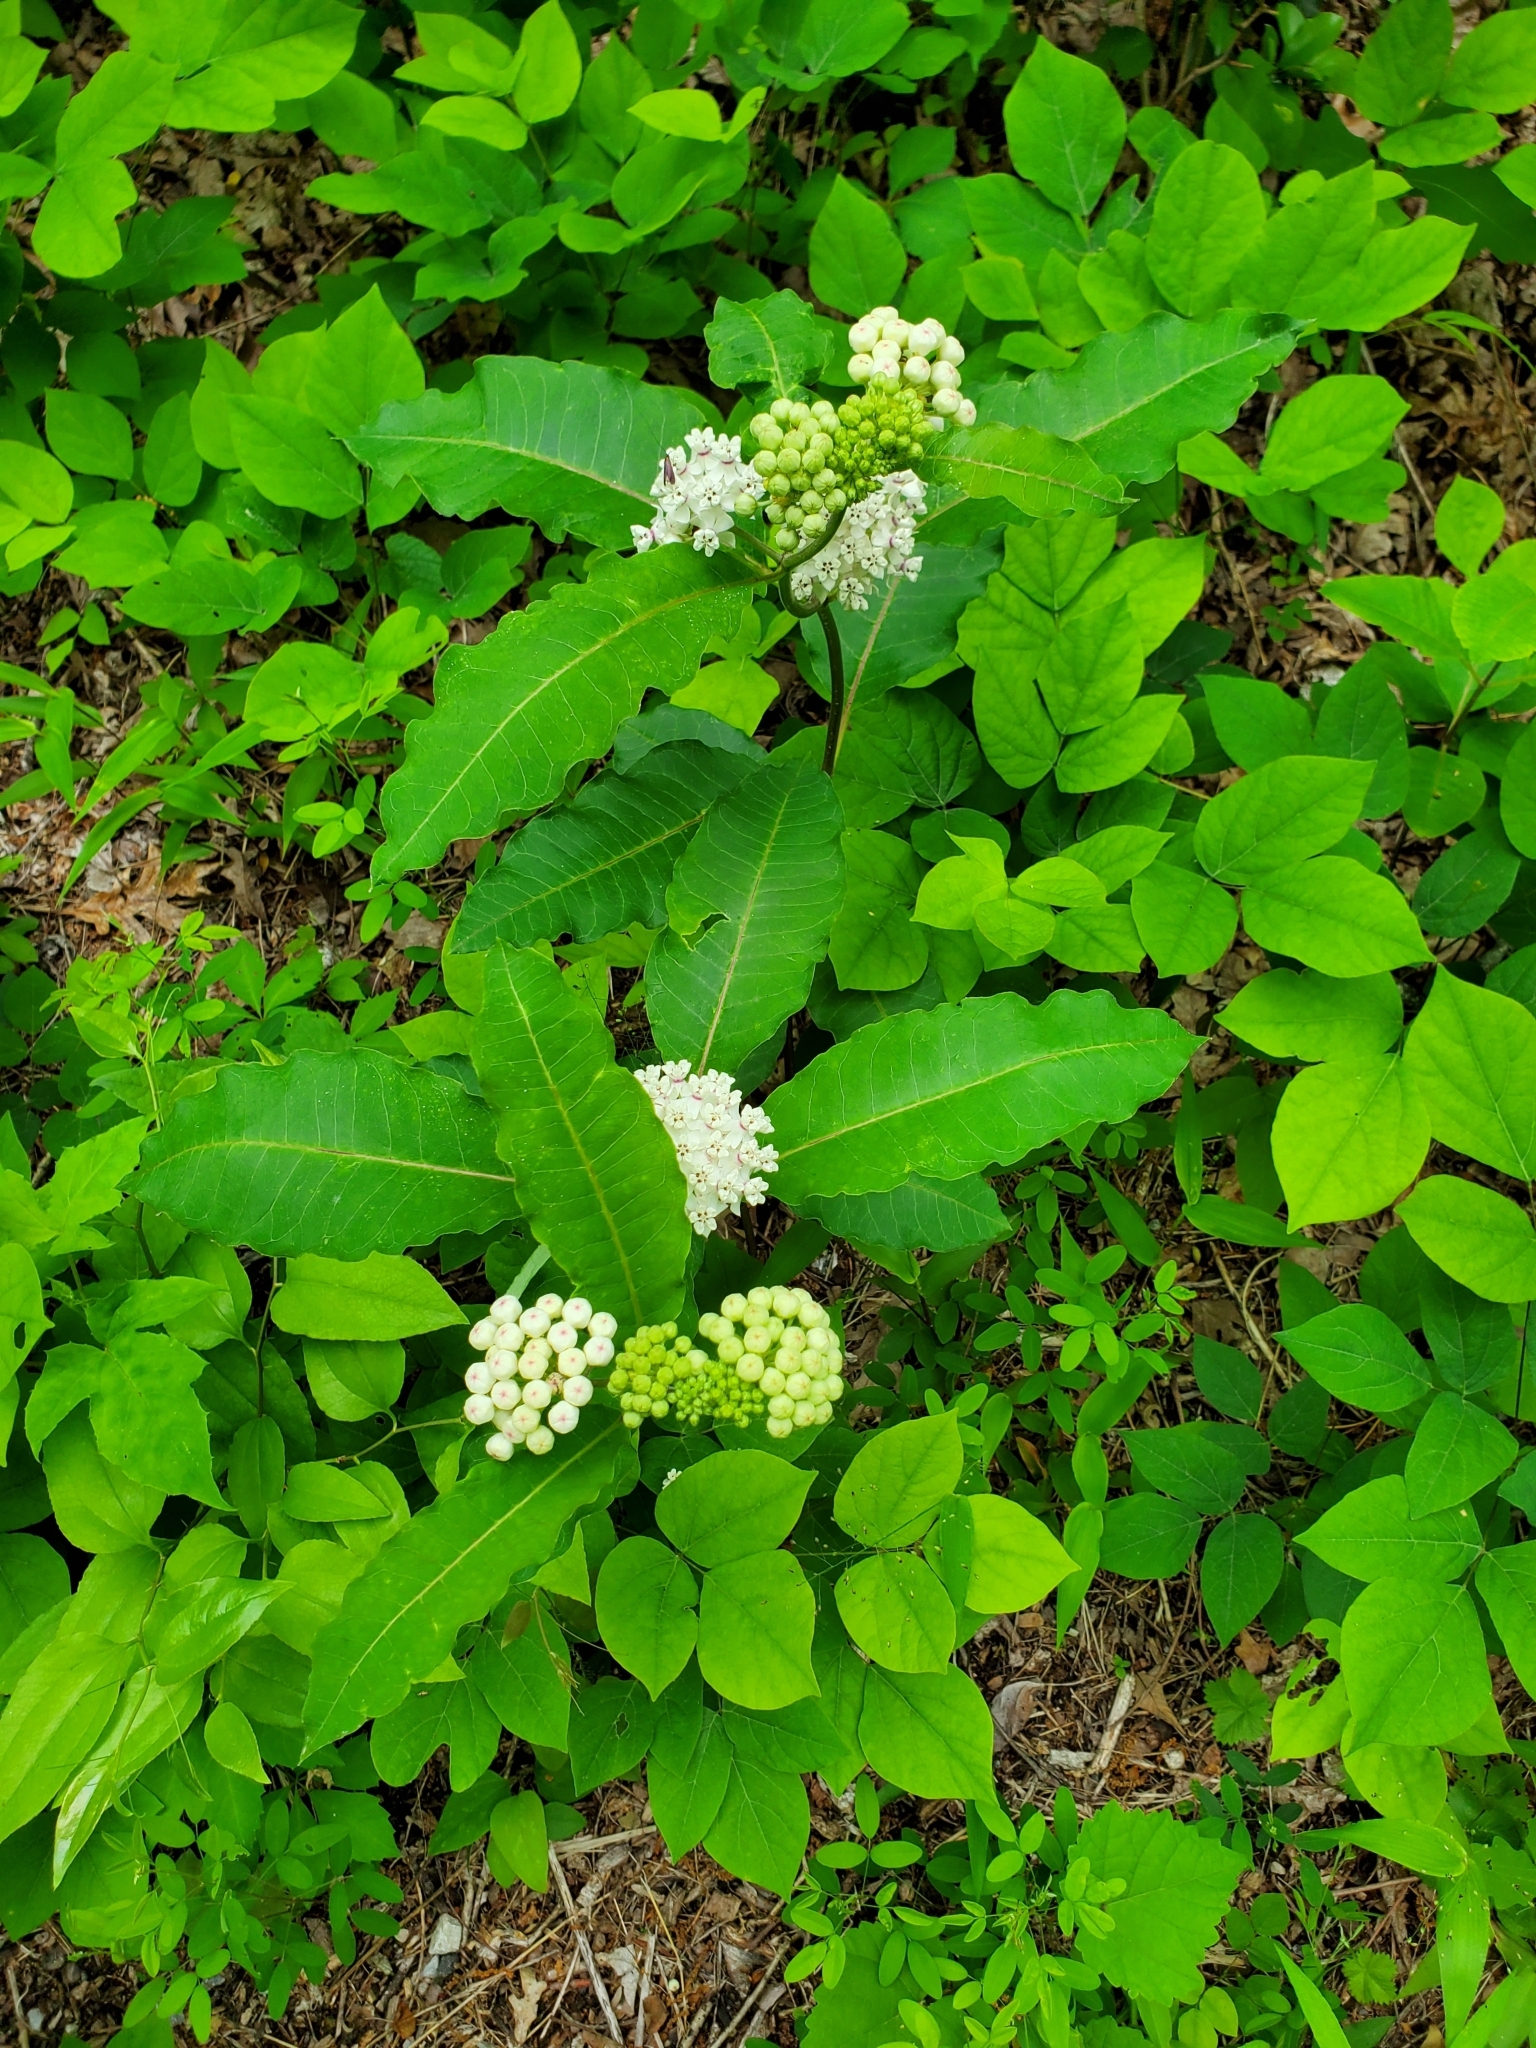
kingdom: Plantae
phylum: Tracheophyta
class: Magnoliopsida
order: Gentianales
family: Apocynaceae
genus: Asclepias
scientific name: Asclepias variegata
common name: Variegated milkweed
